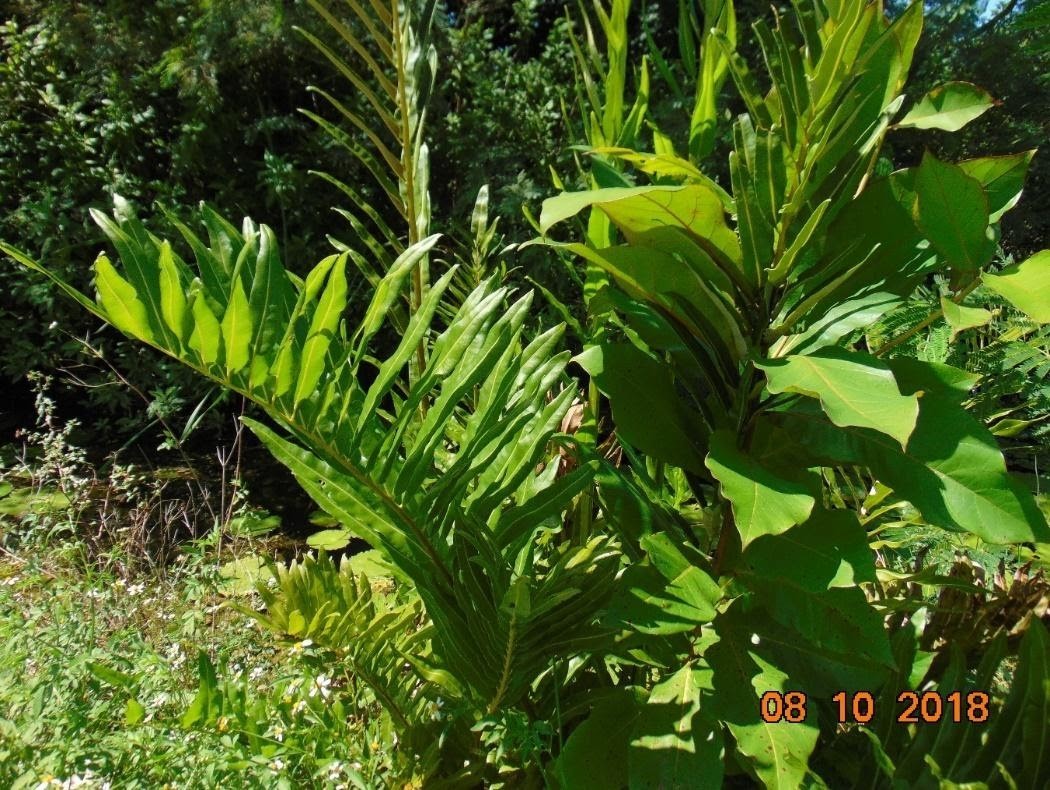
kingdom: Plantae
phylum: Tracheophyta
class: Polypodiopsida
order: Polypodiales
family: Pteridaceae
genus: Acrostichum
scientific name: Acrostichum danaeifolium
